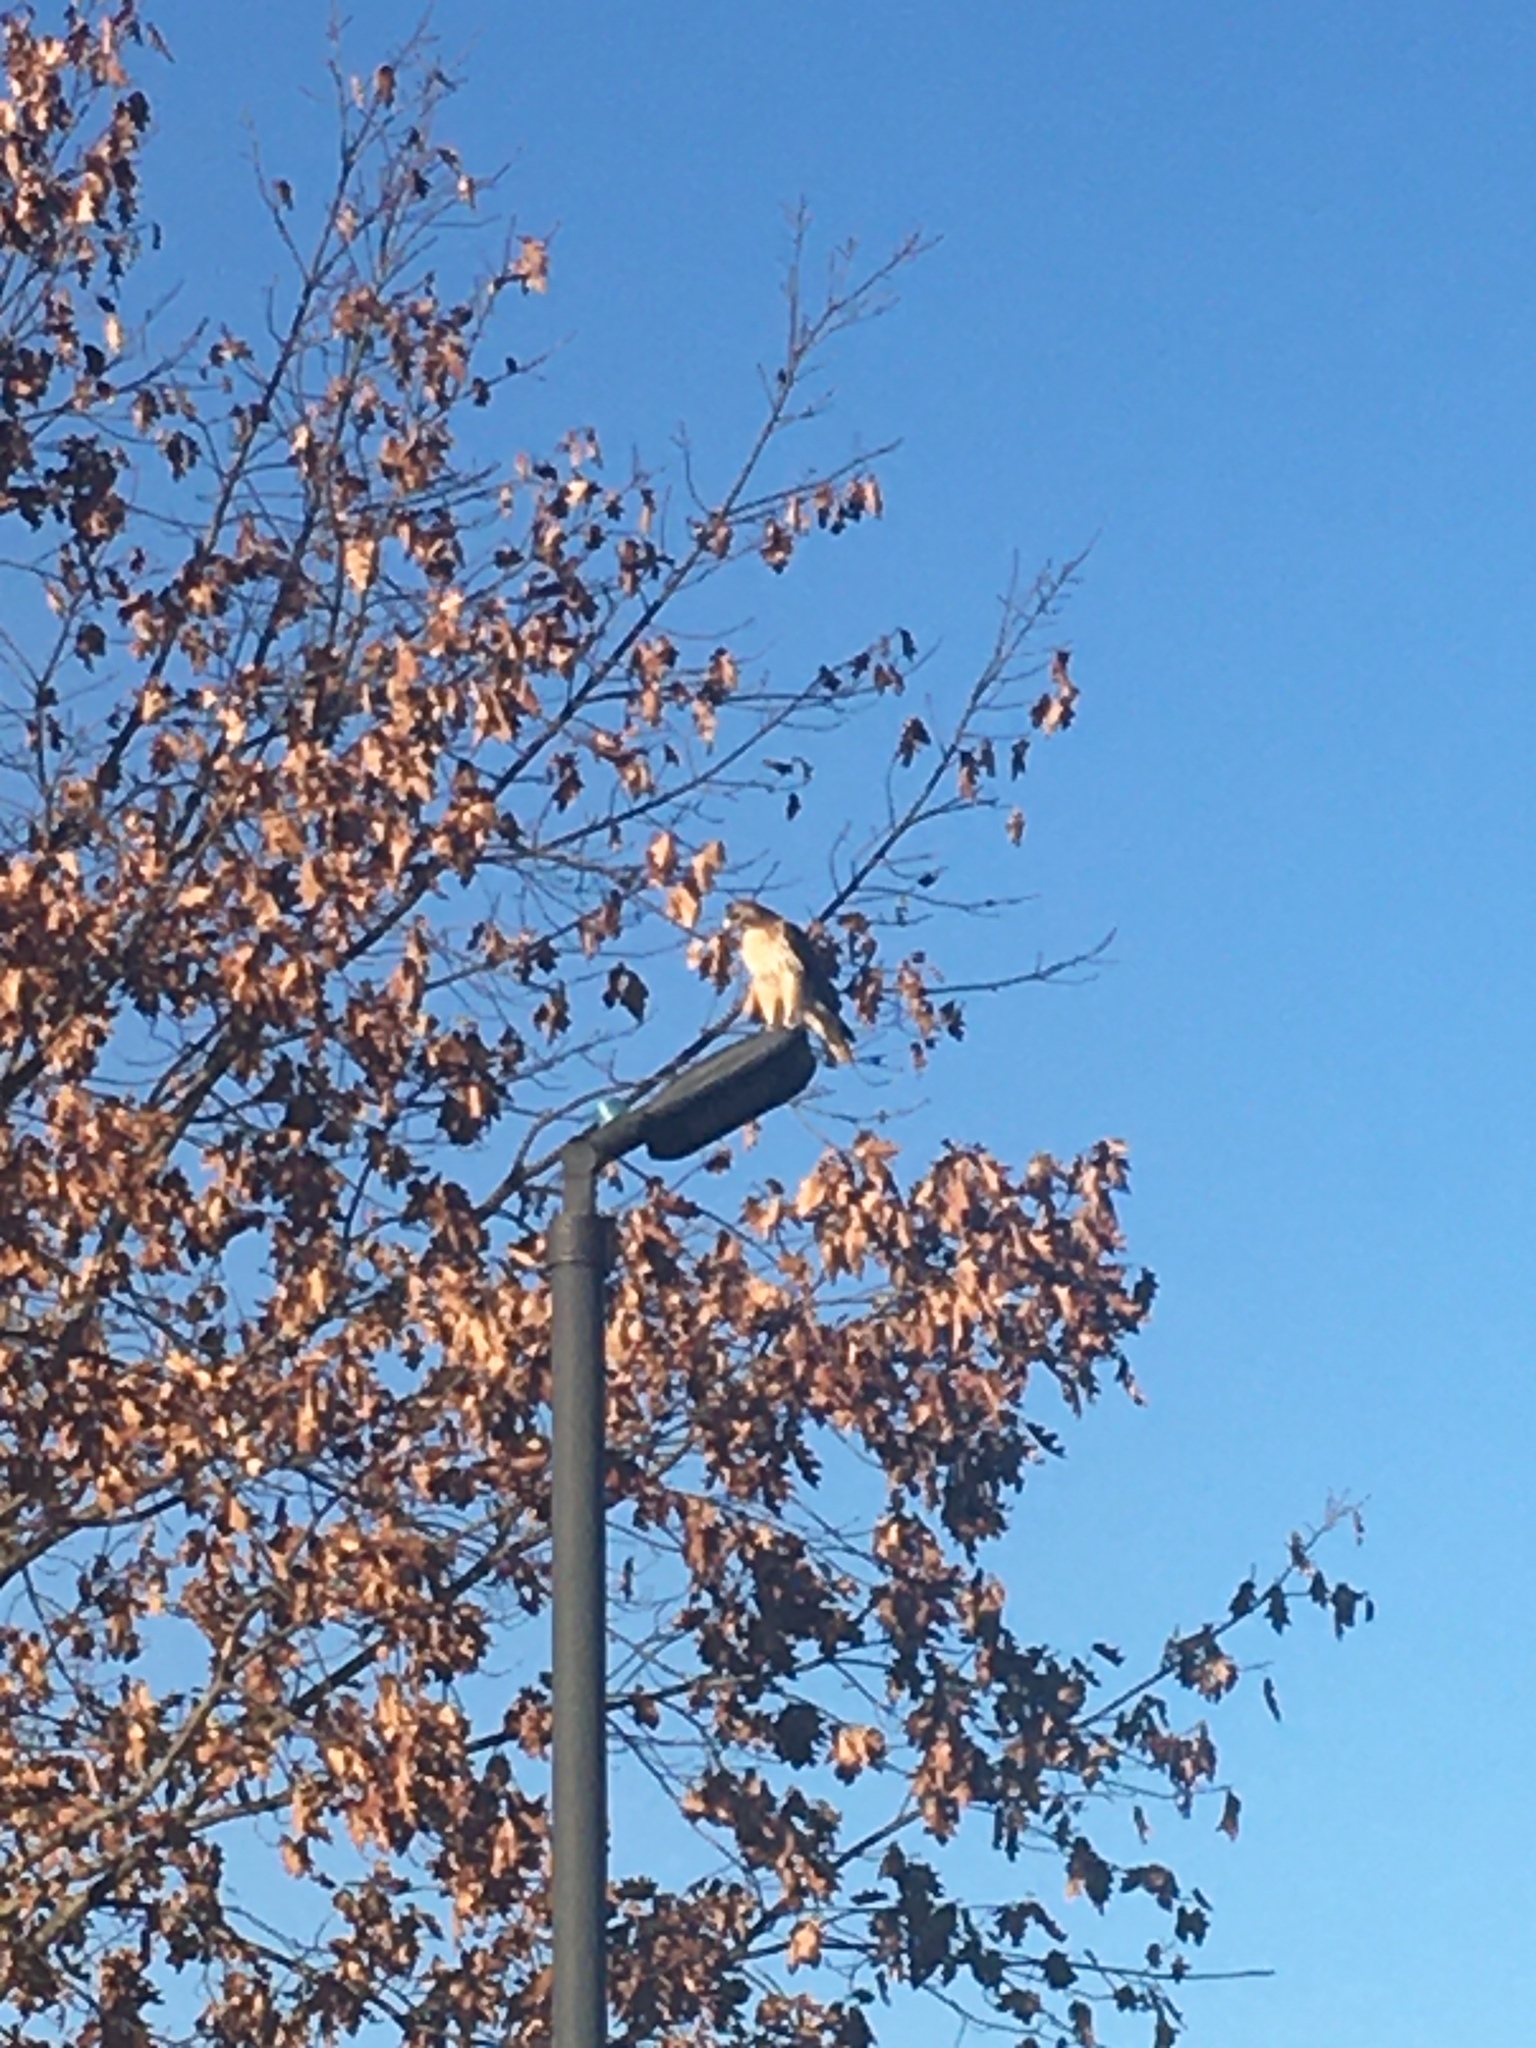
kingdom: Animalia
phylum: Chordata
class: Aves
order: Accipitriformes
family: Accipitridae
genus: Buteo
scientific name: Buteo jamaicensis
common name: Red-tailed hawk
